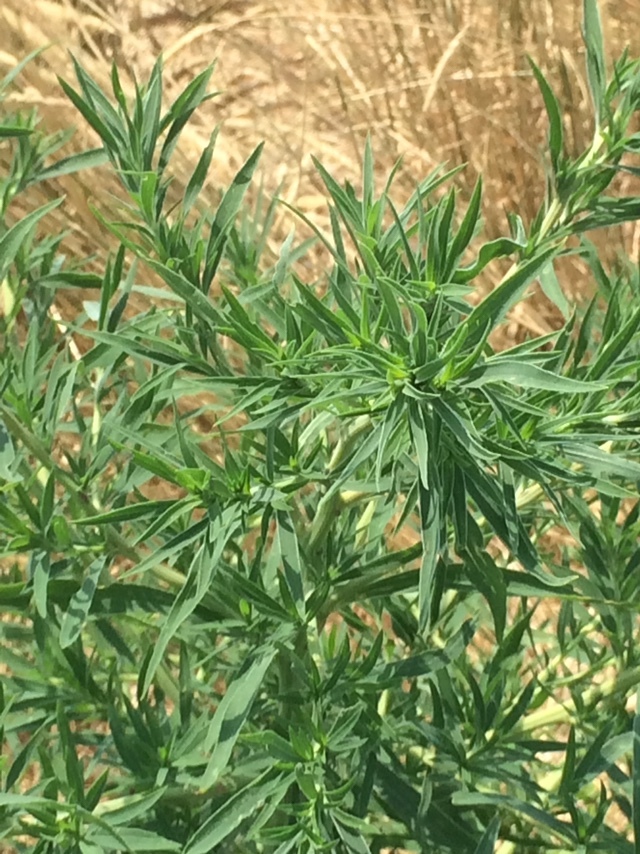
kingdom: Plantae
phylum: Tracheophyta
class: Magnoliopsida
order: Caryophyllales
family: Amaranthaceae
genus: Bassia
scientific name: Bassia scoparia
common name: Belvedere
